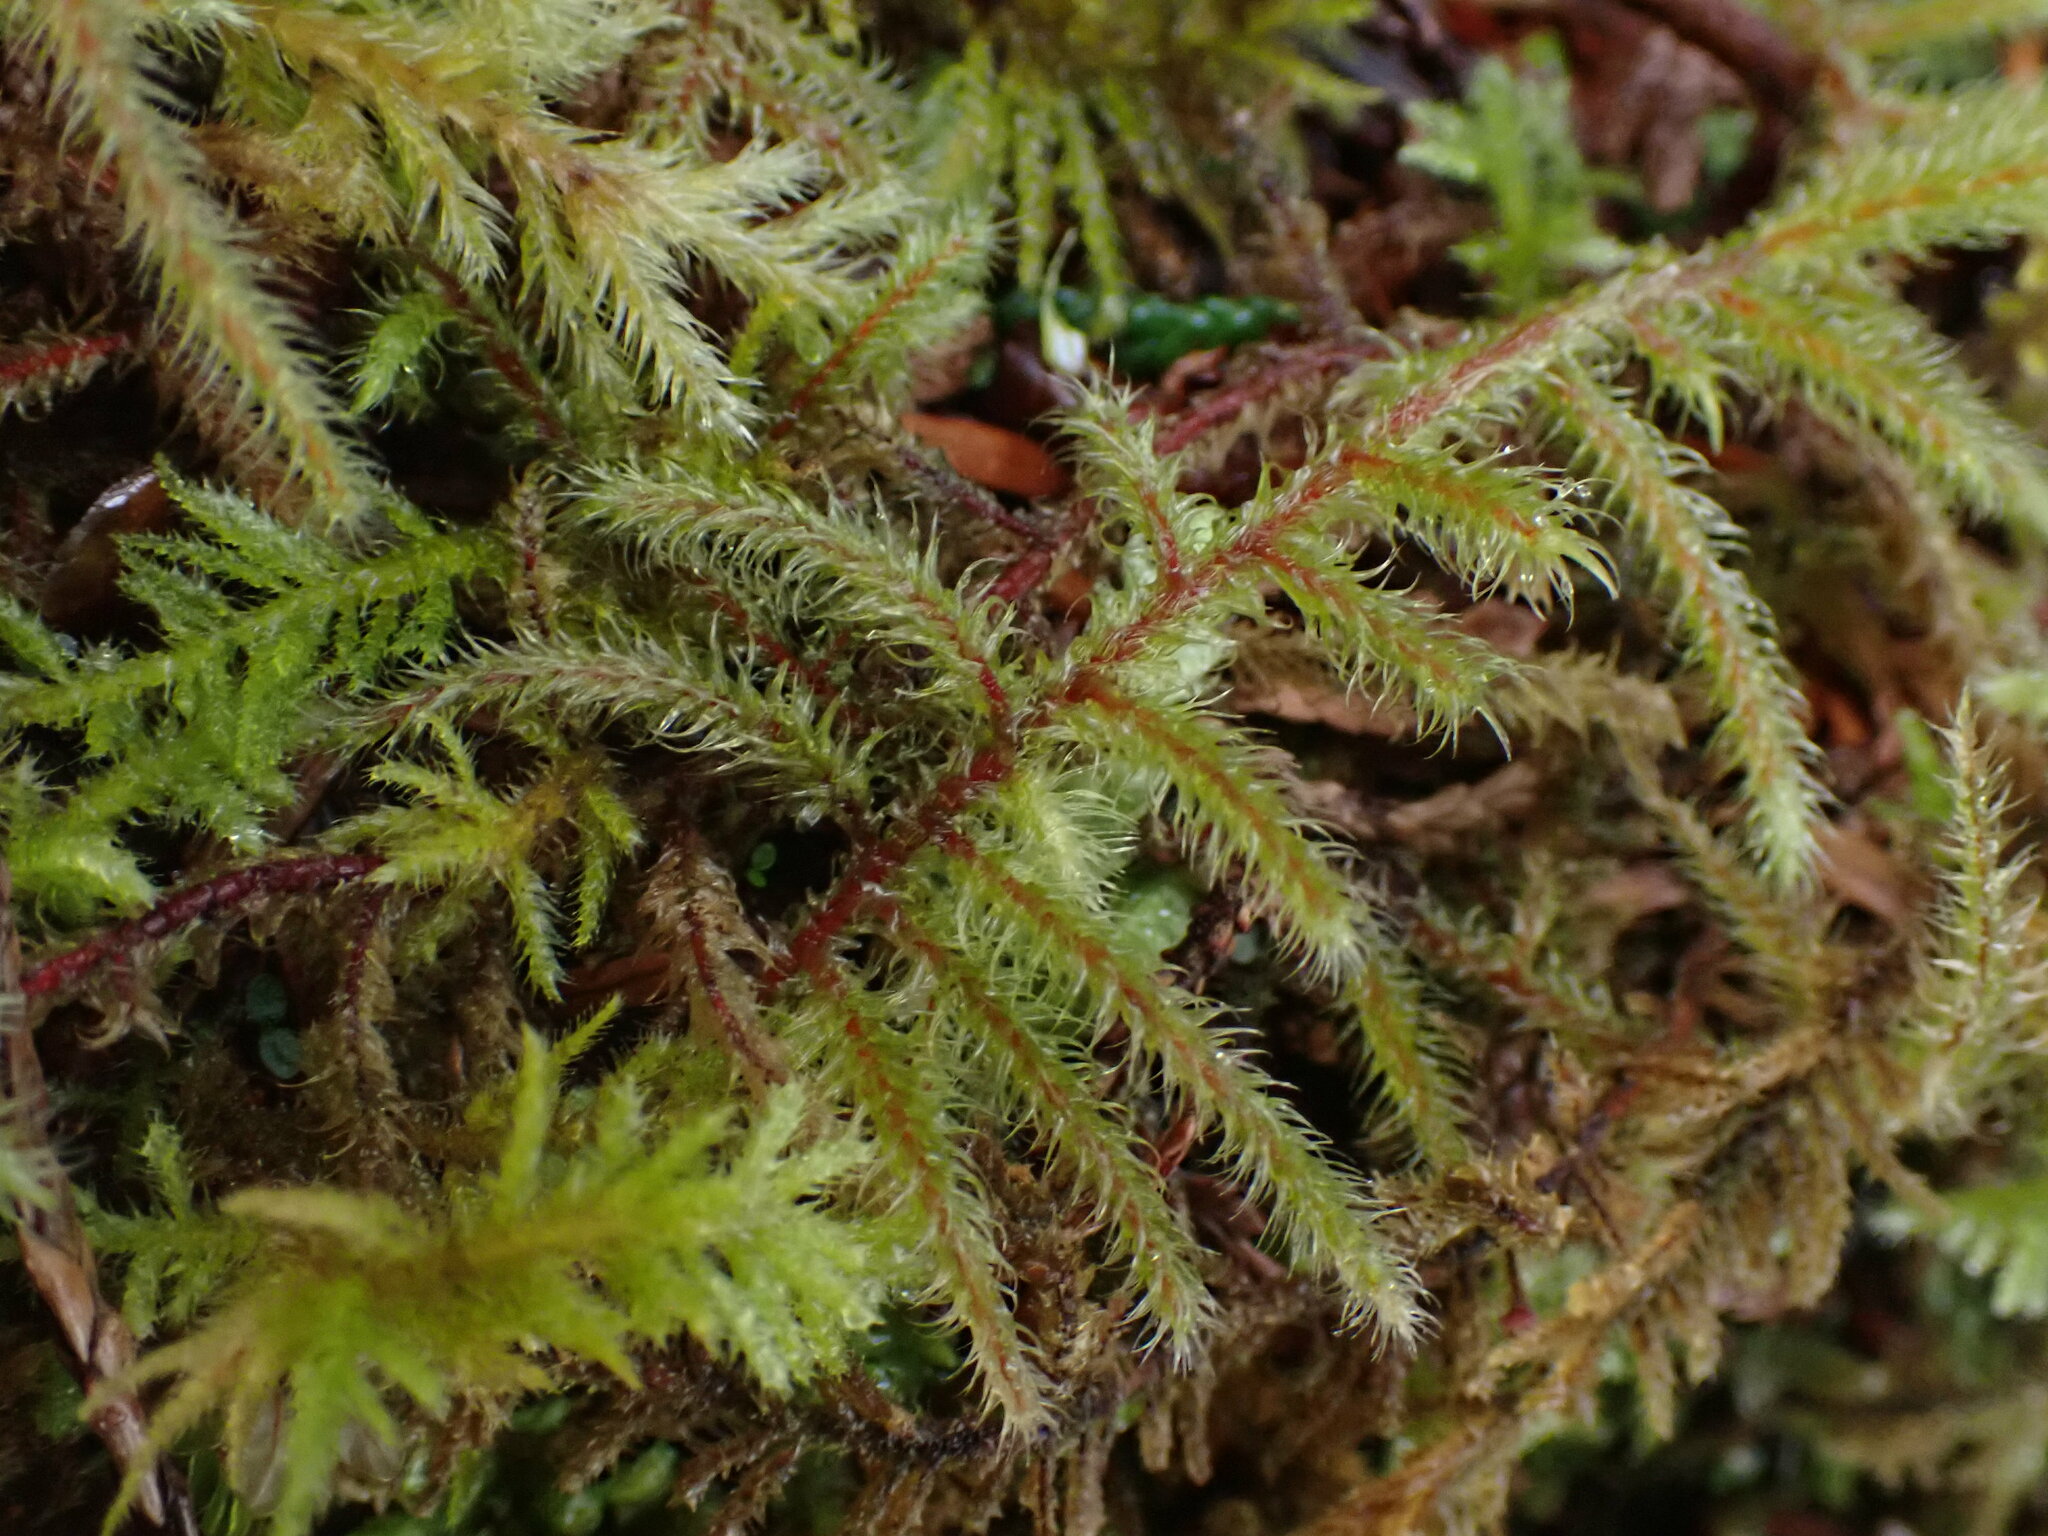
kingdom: Plantae
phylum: Bryophyta
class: Bryopsida
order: Hypnales
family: Hylocomiaceae
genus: Rhytidiadelphus
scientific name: Rhytidiadelphus loreus
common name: Lanky moss
